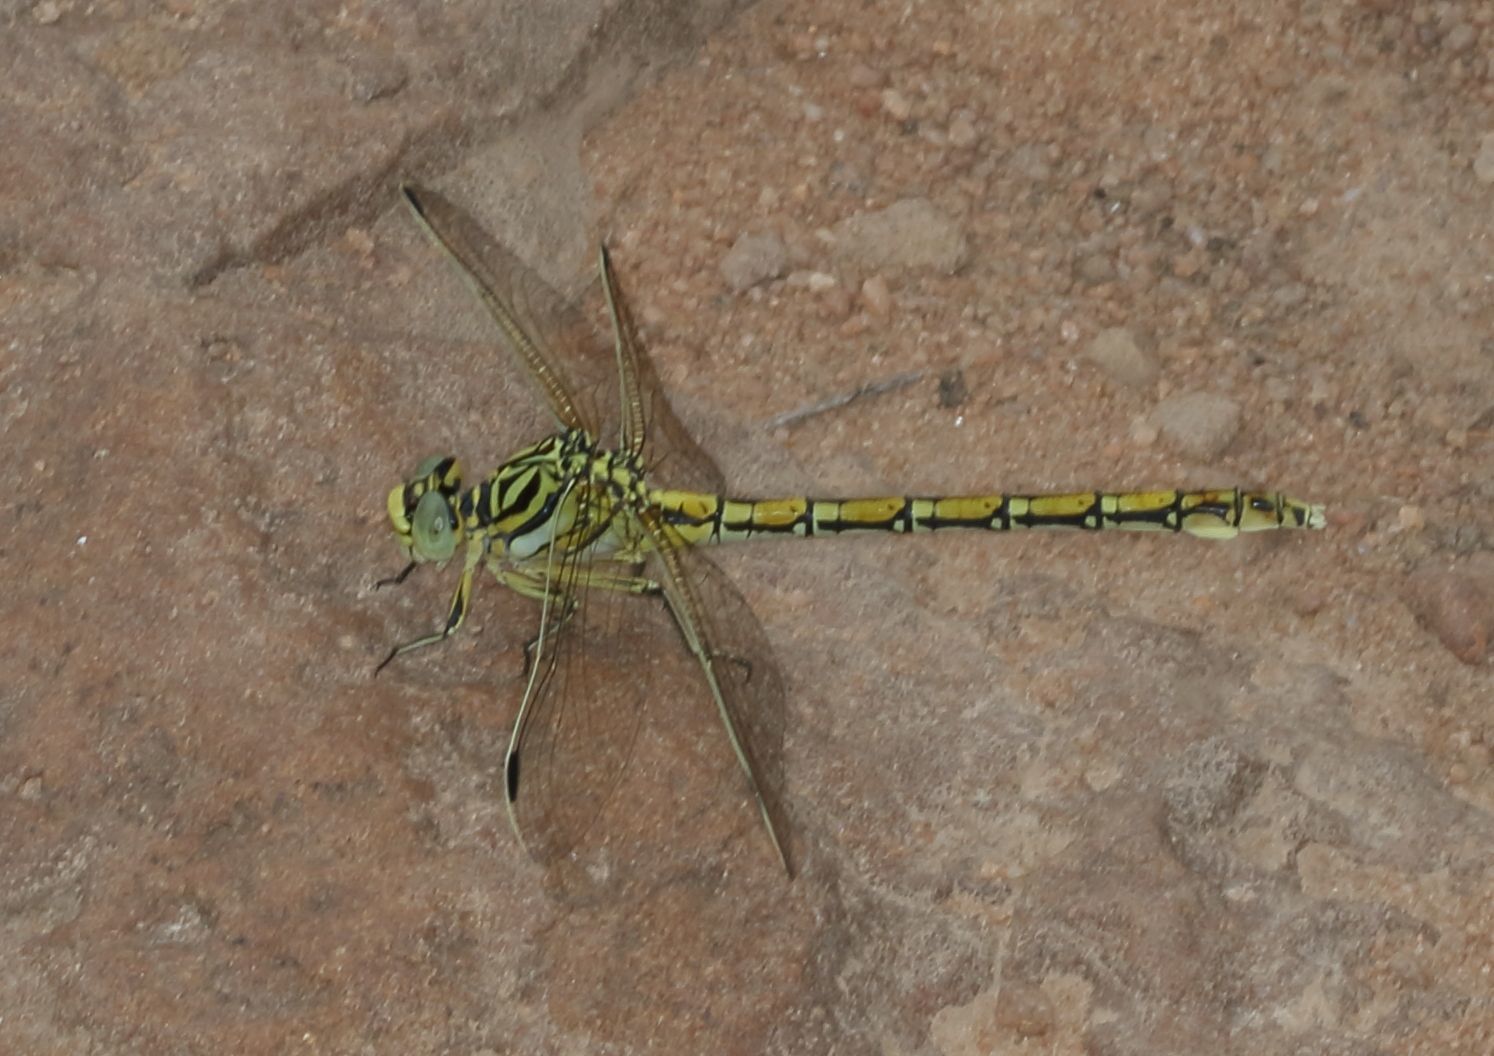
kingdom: Animalia
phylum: Arthropoda
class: Insecta
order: Odonata
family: Gomphidae
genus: Ceratogomphus
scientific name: Ceratogomphus pictus
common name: Common thorntail
